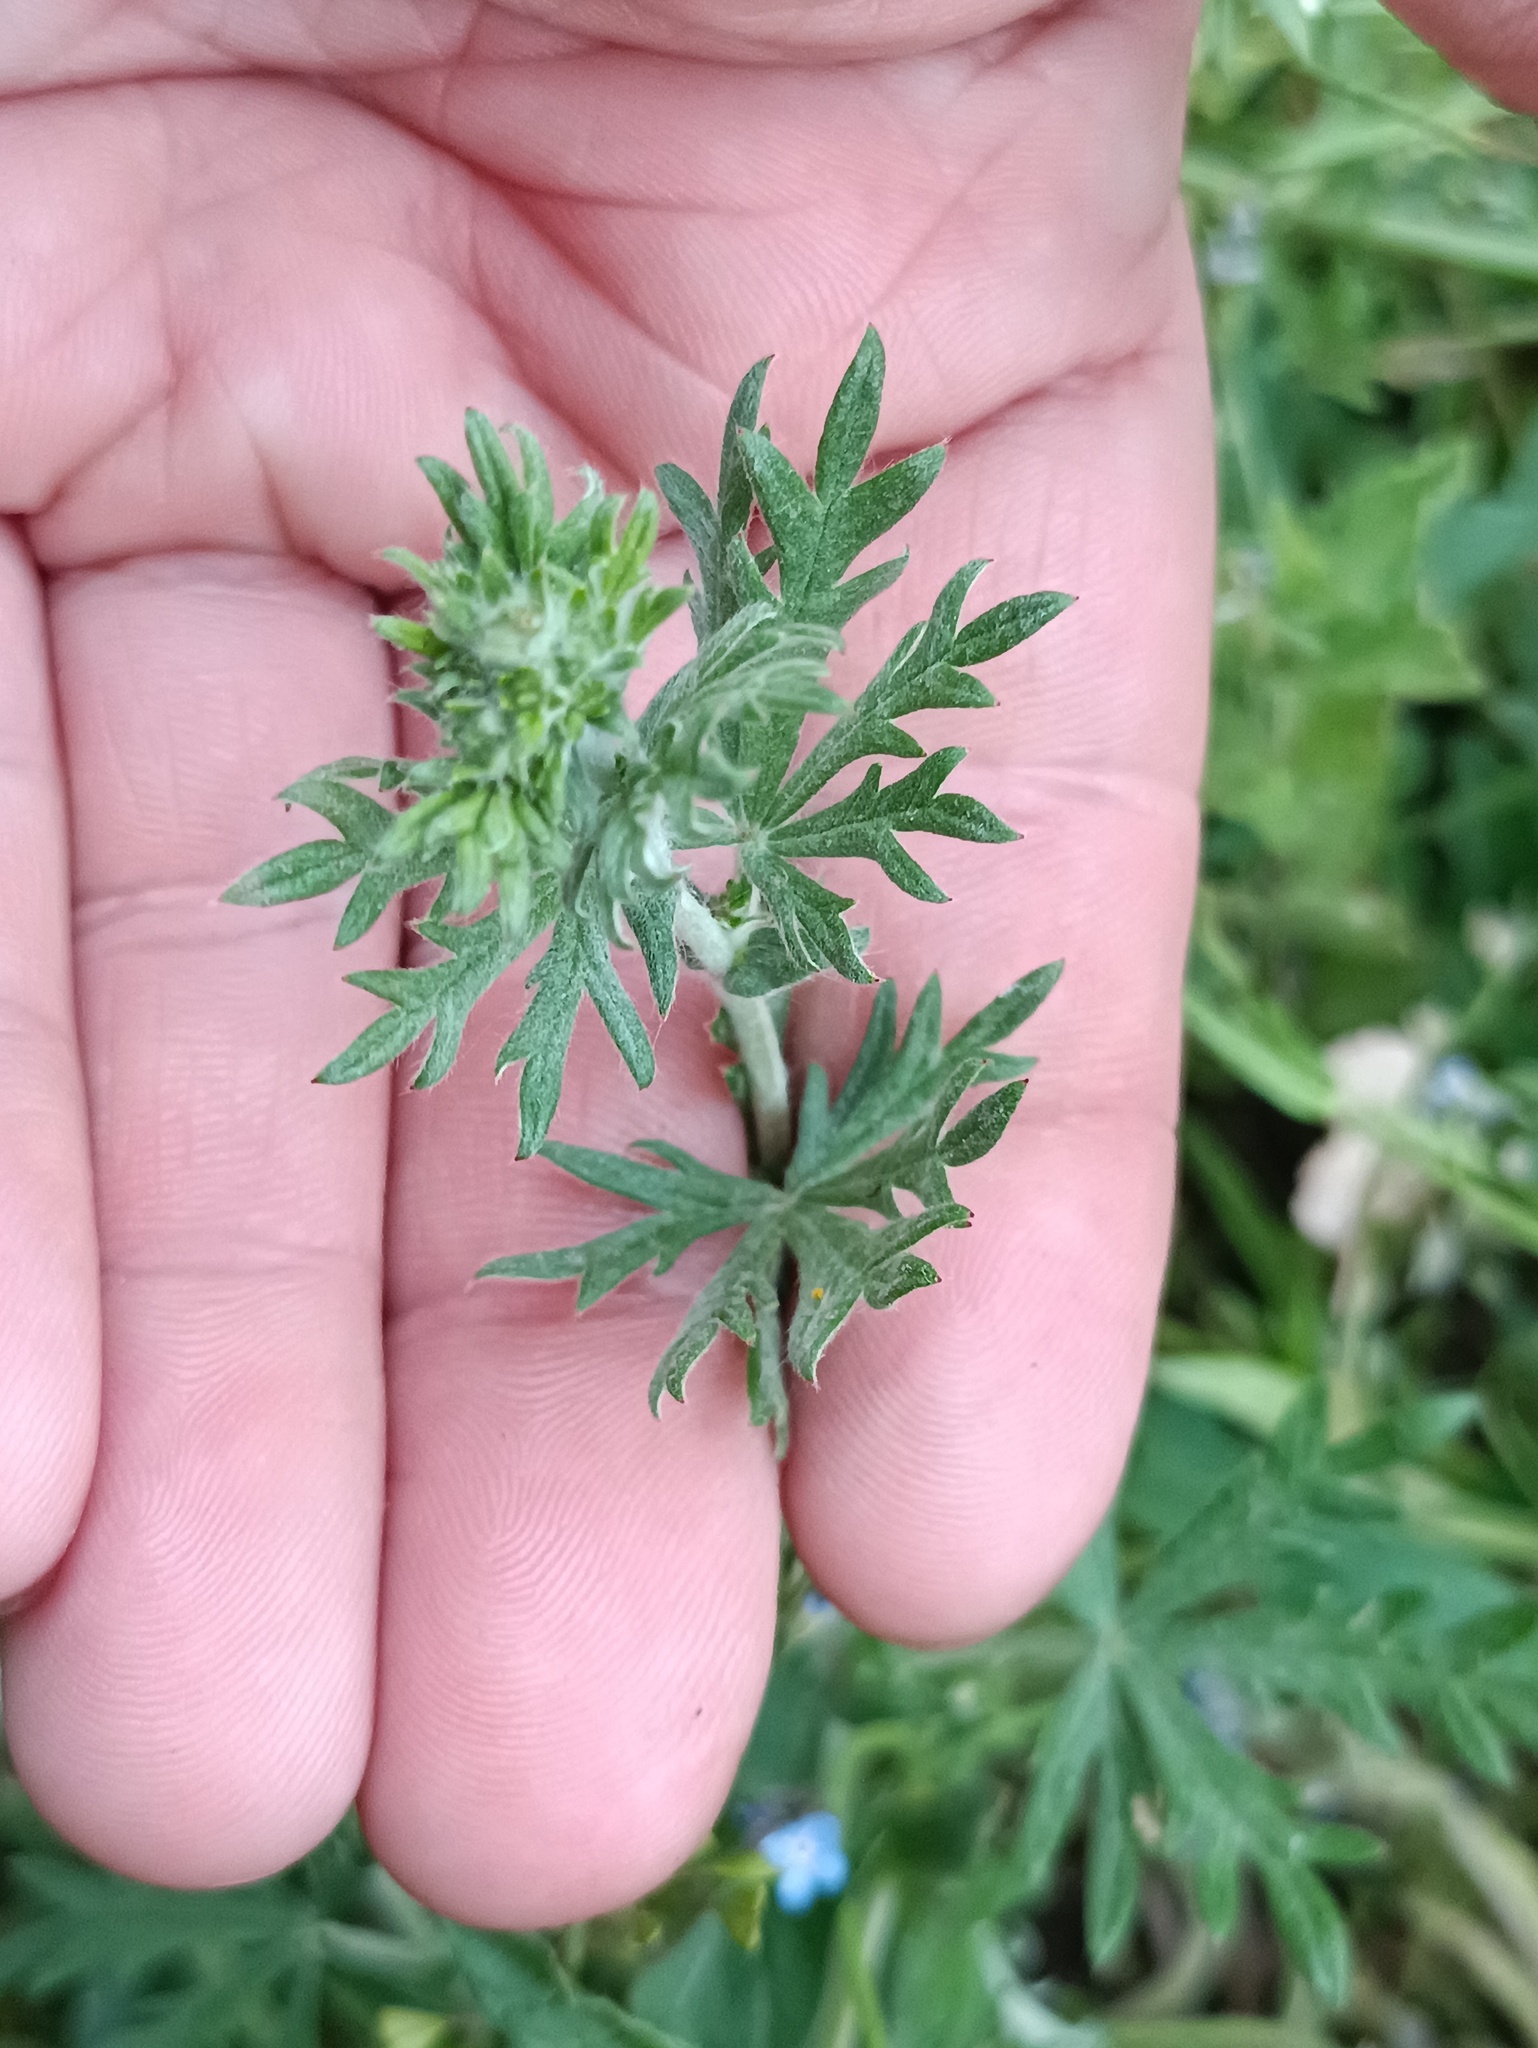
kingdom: Plantae
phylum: Tracheophyta
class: Magnoliopsida
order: Rosales
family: Rosaceae
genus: Potentilla
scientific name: Potentilla argentea
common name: Hoary cinquefoil
